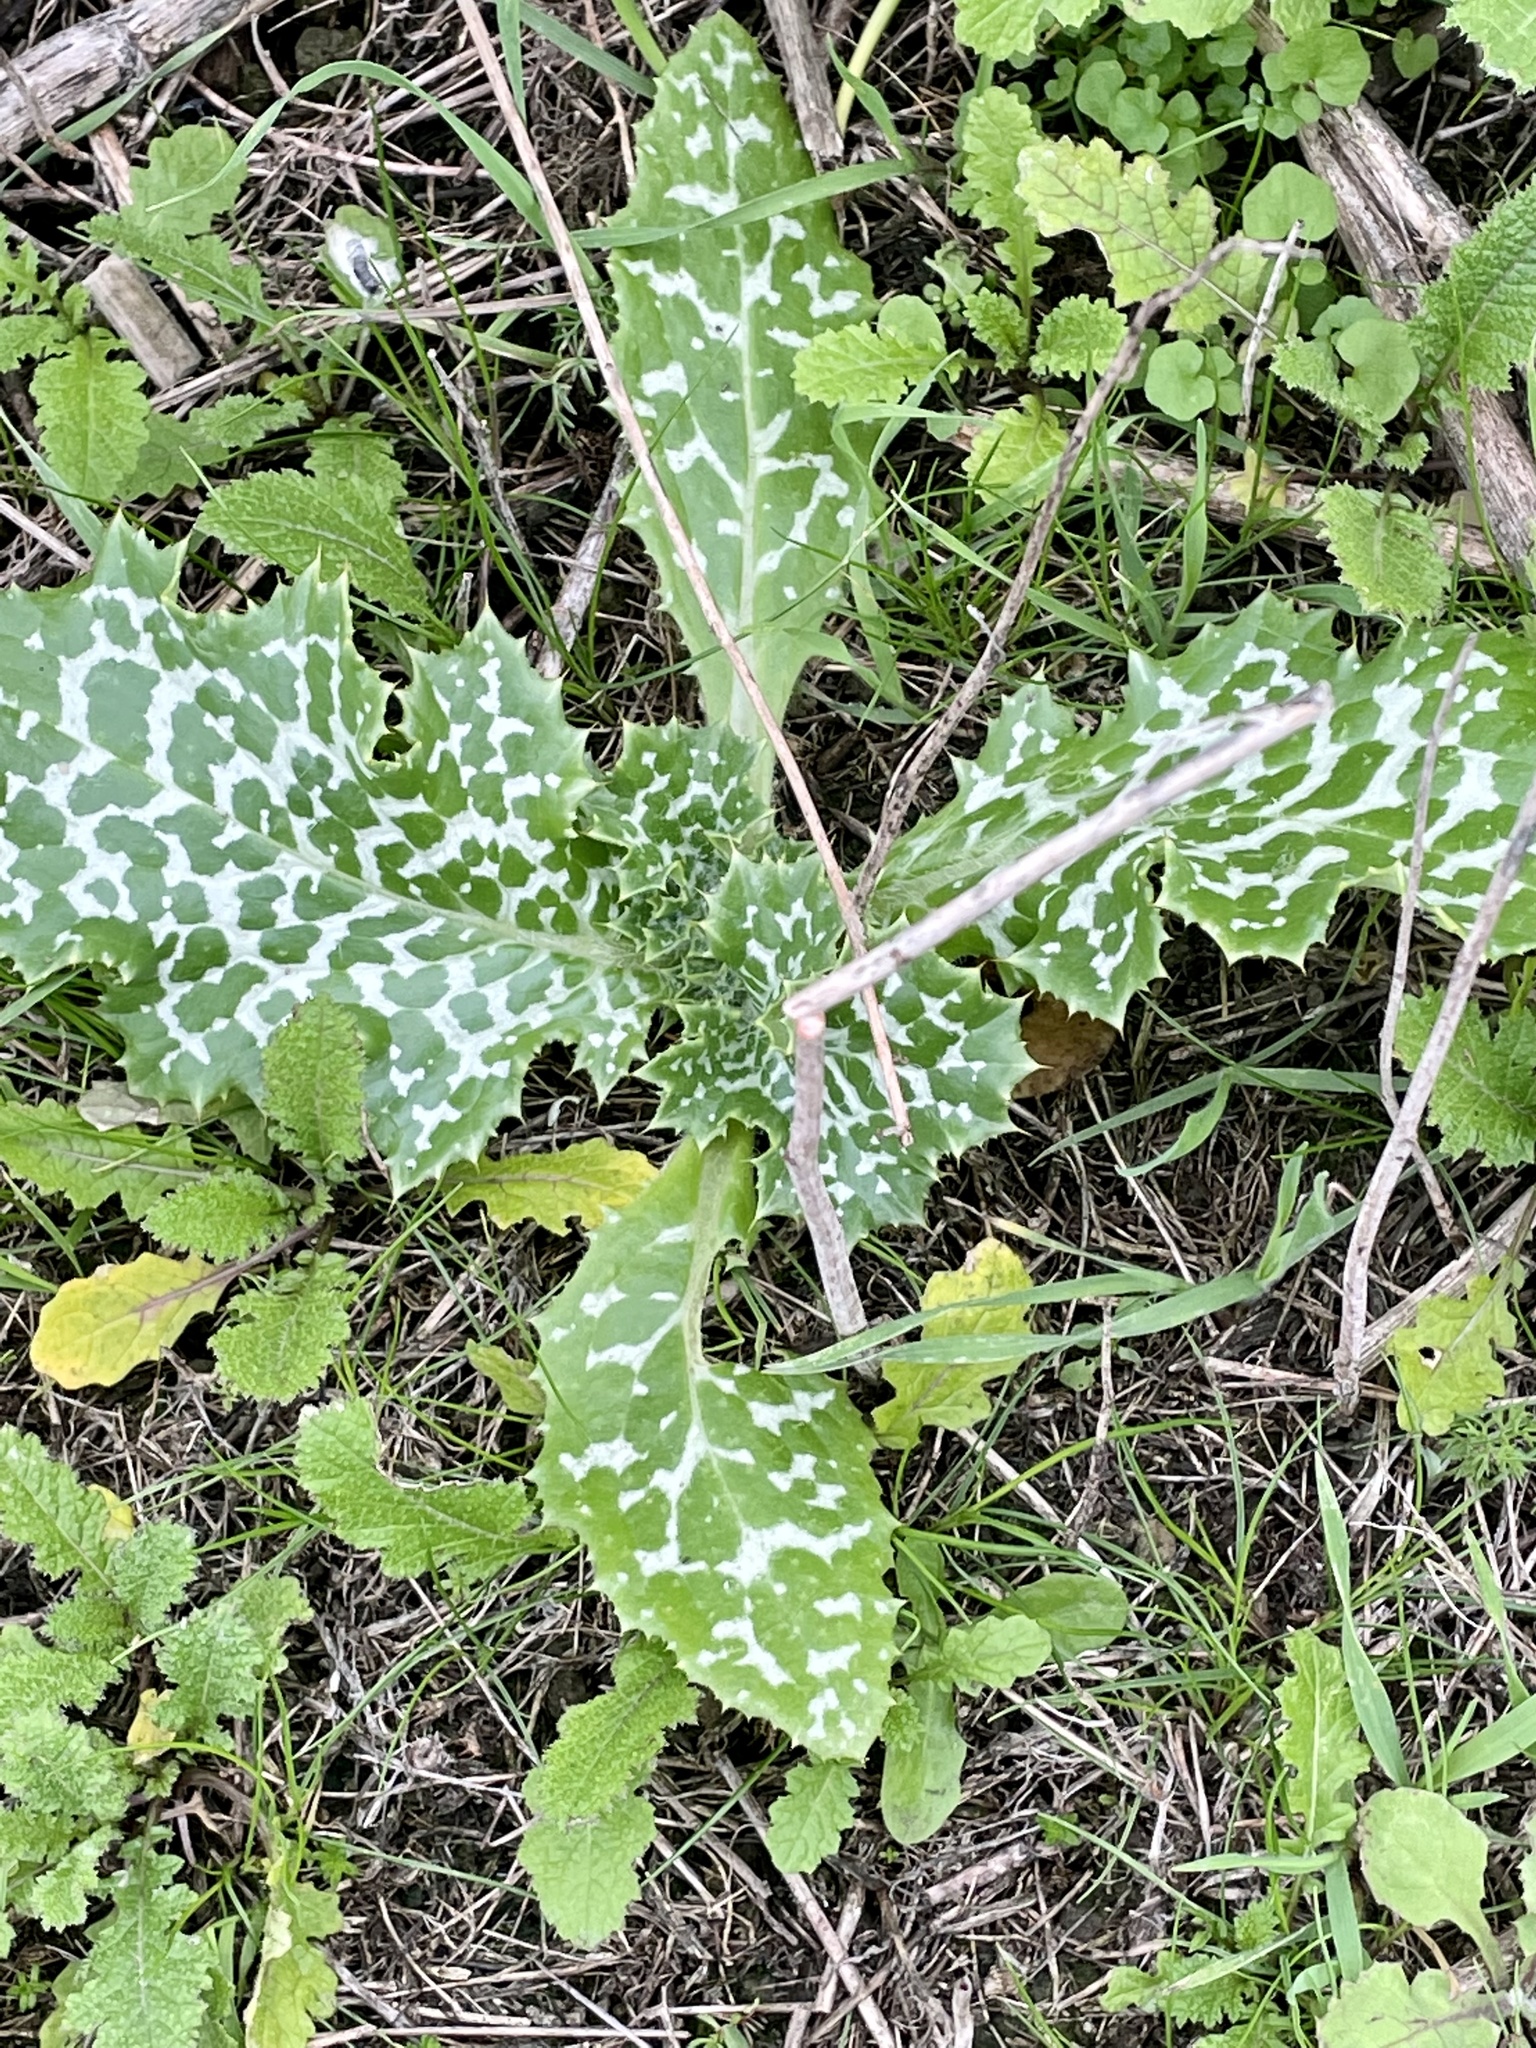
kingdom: Plantae
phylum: Tracheophyta
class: Magnoliopsida
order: Asterales
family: Asteraceae
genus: Silybum
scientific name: Silybum marianum
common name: Milk thistle
